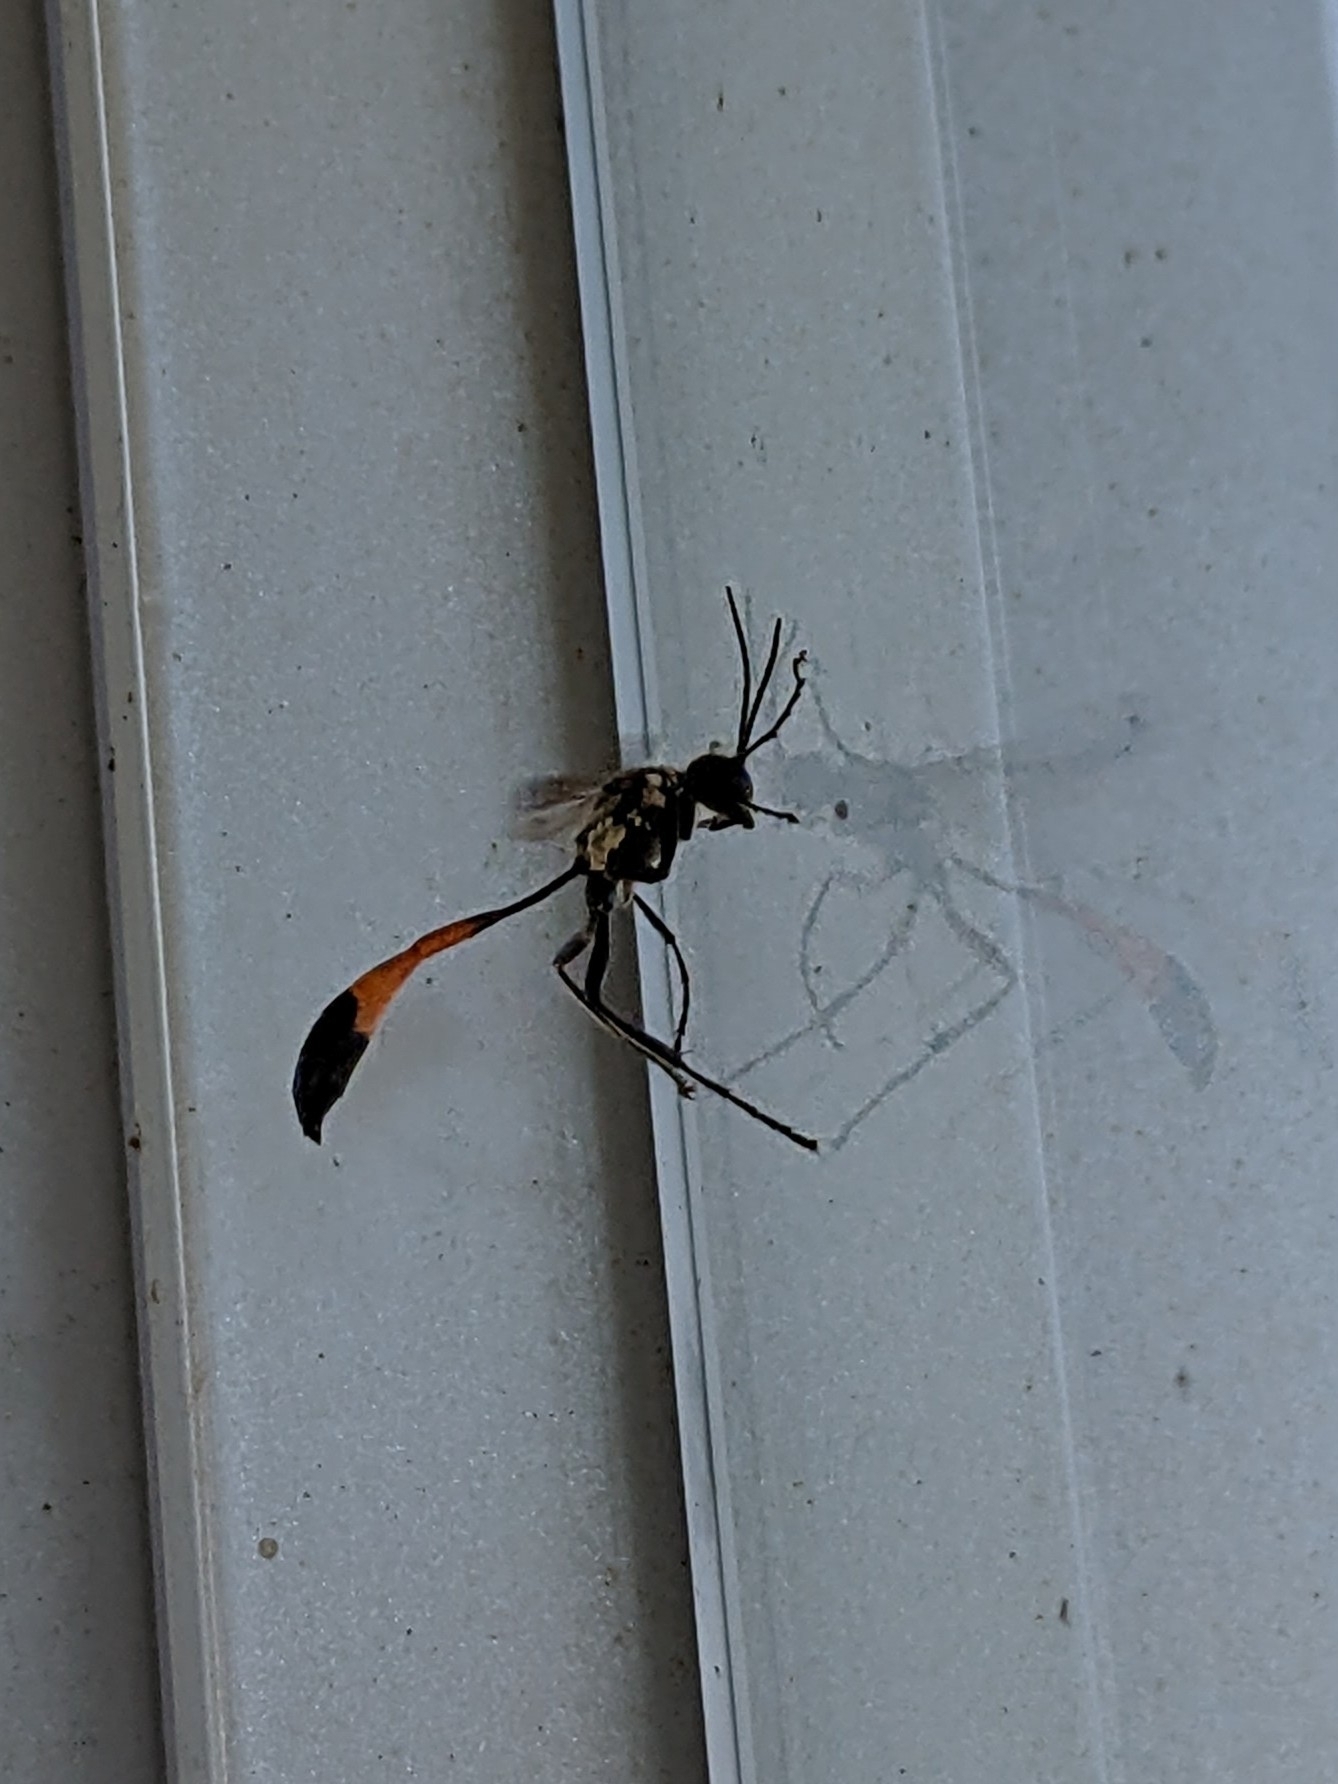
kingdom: Animalia
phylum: Arthropoda
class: Insecta
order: Hymenoptera
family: Sphecidae
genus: Ammophila
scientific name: Ammophila sabulosa
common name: Red banded sand wasp
